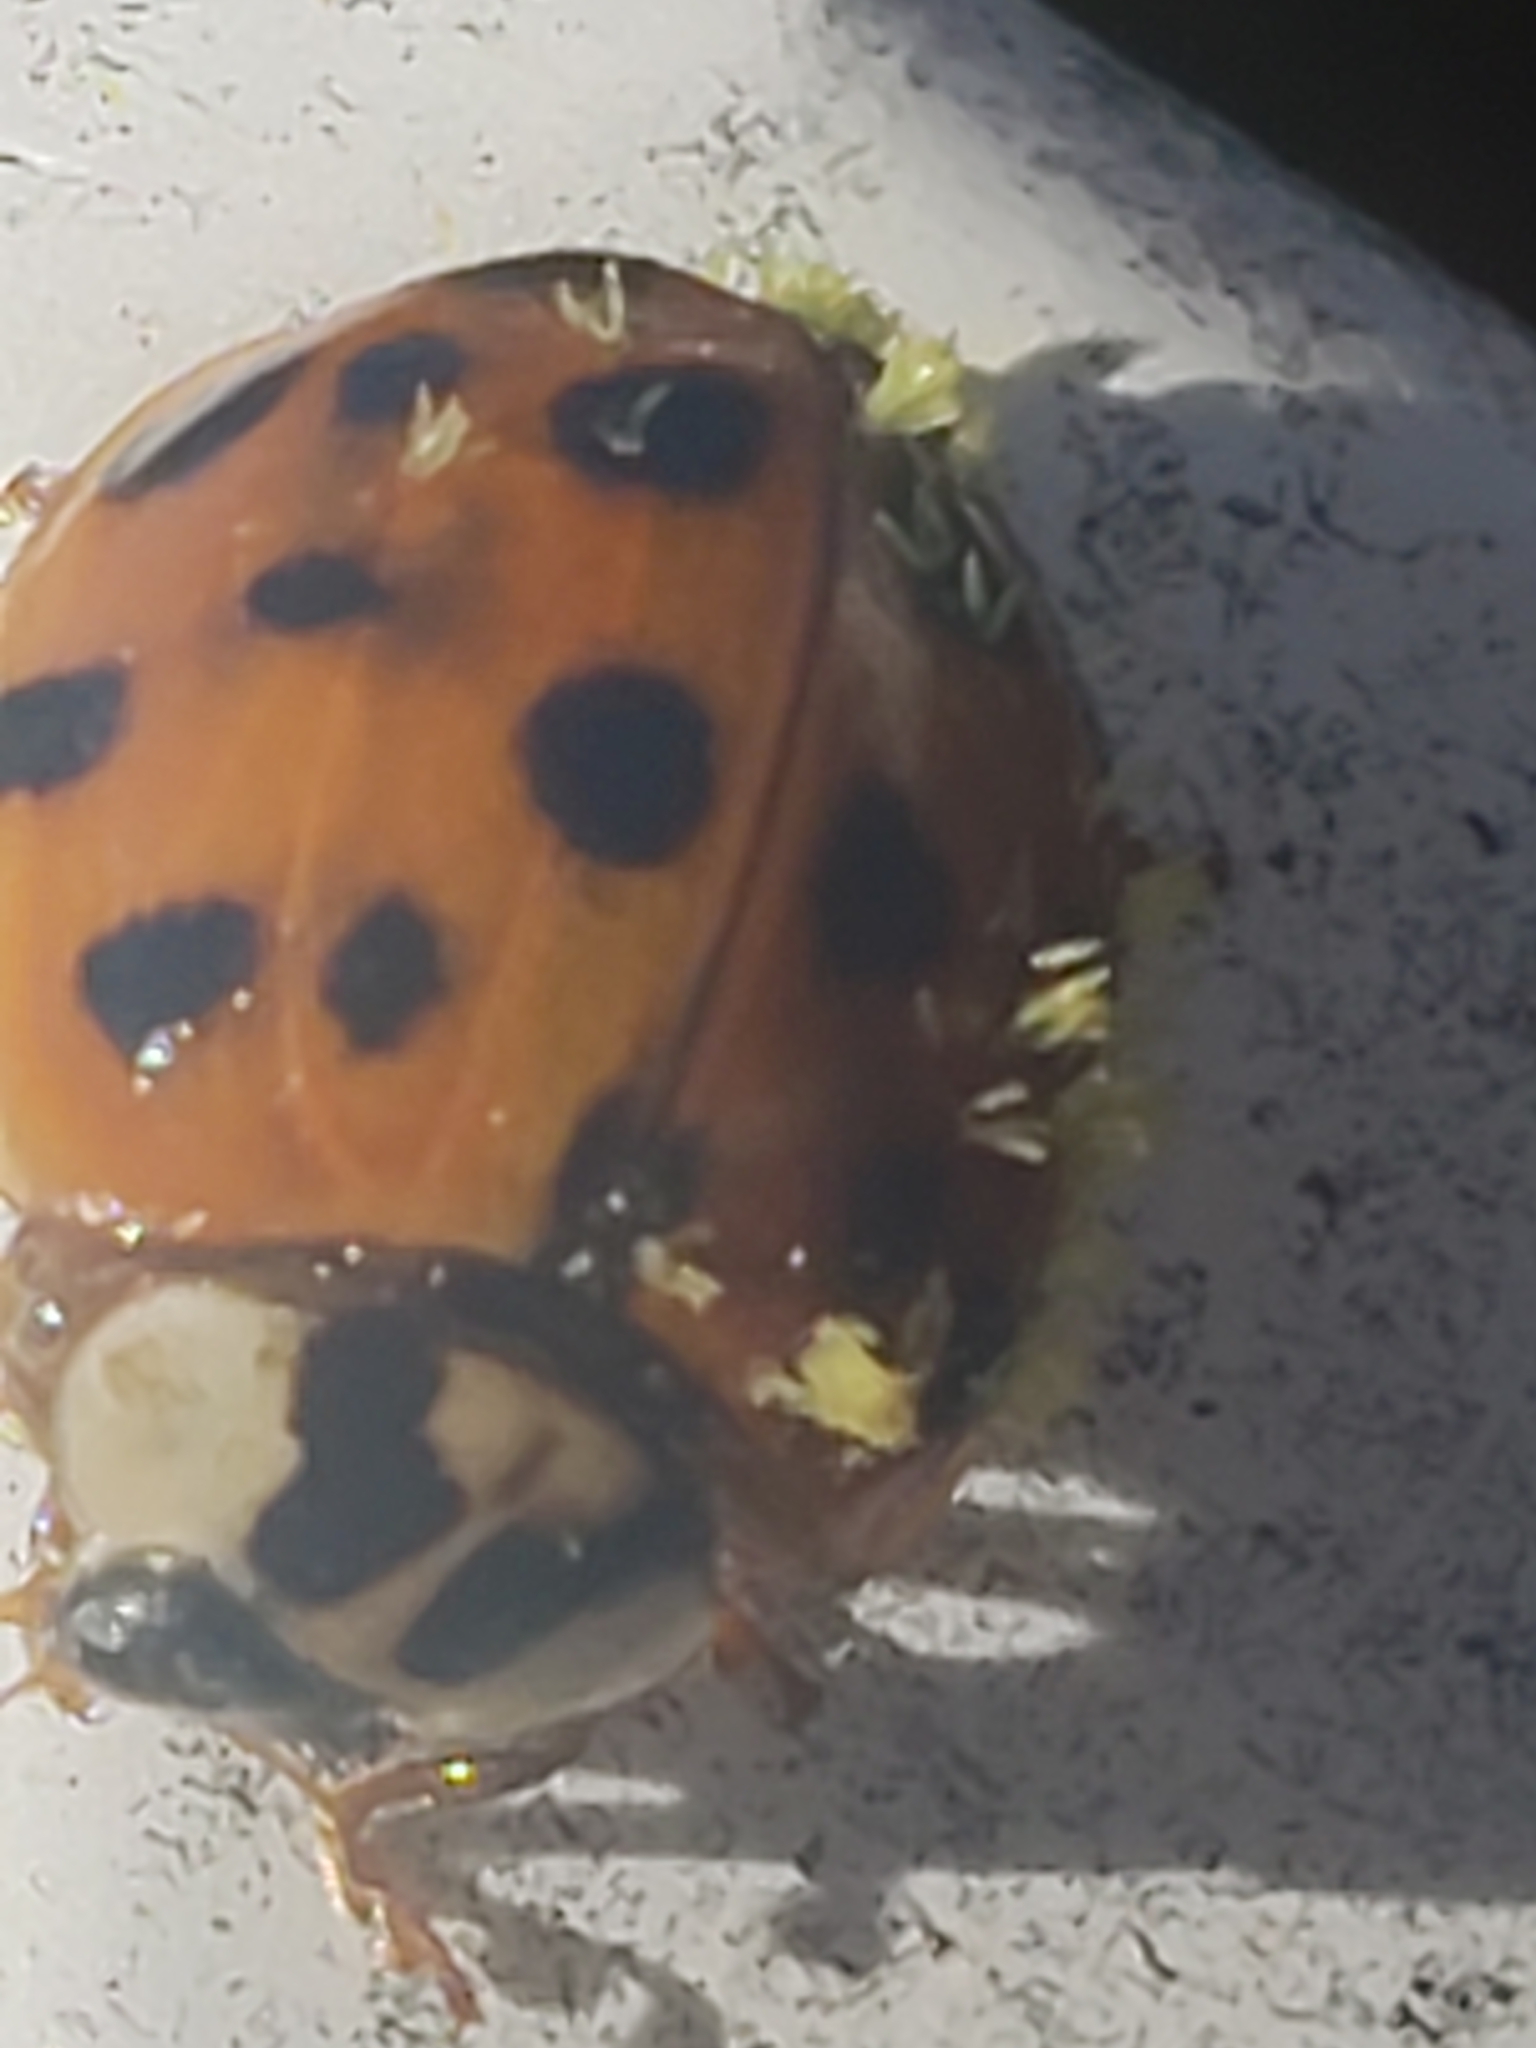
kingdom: Fungi
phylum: Ascomycota
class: Laboulbeniomycetes
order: Laboulbeniales
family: Laboulbeniaceae
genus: Hesperomyces
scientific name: Hesperomyces harmoniae
